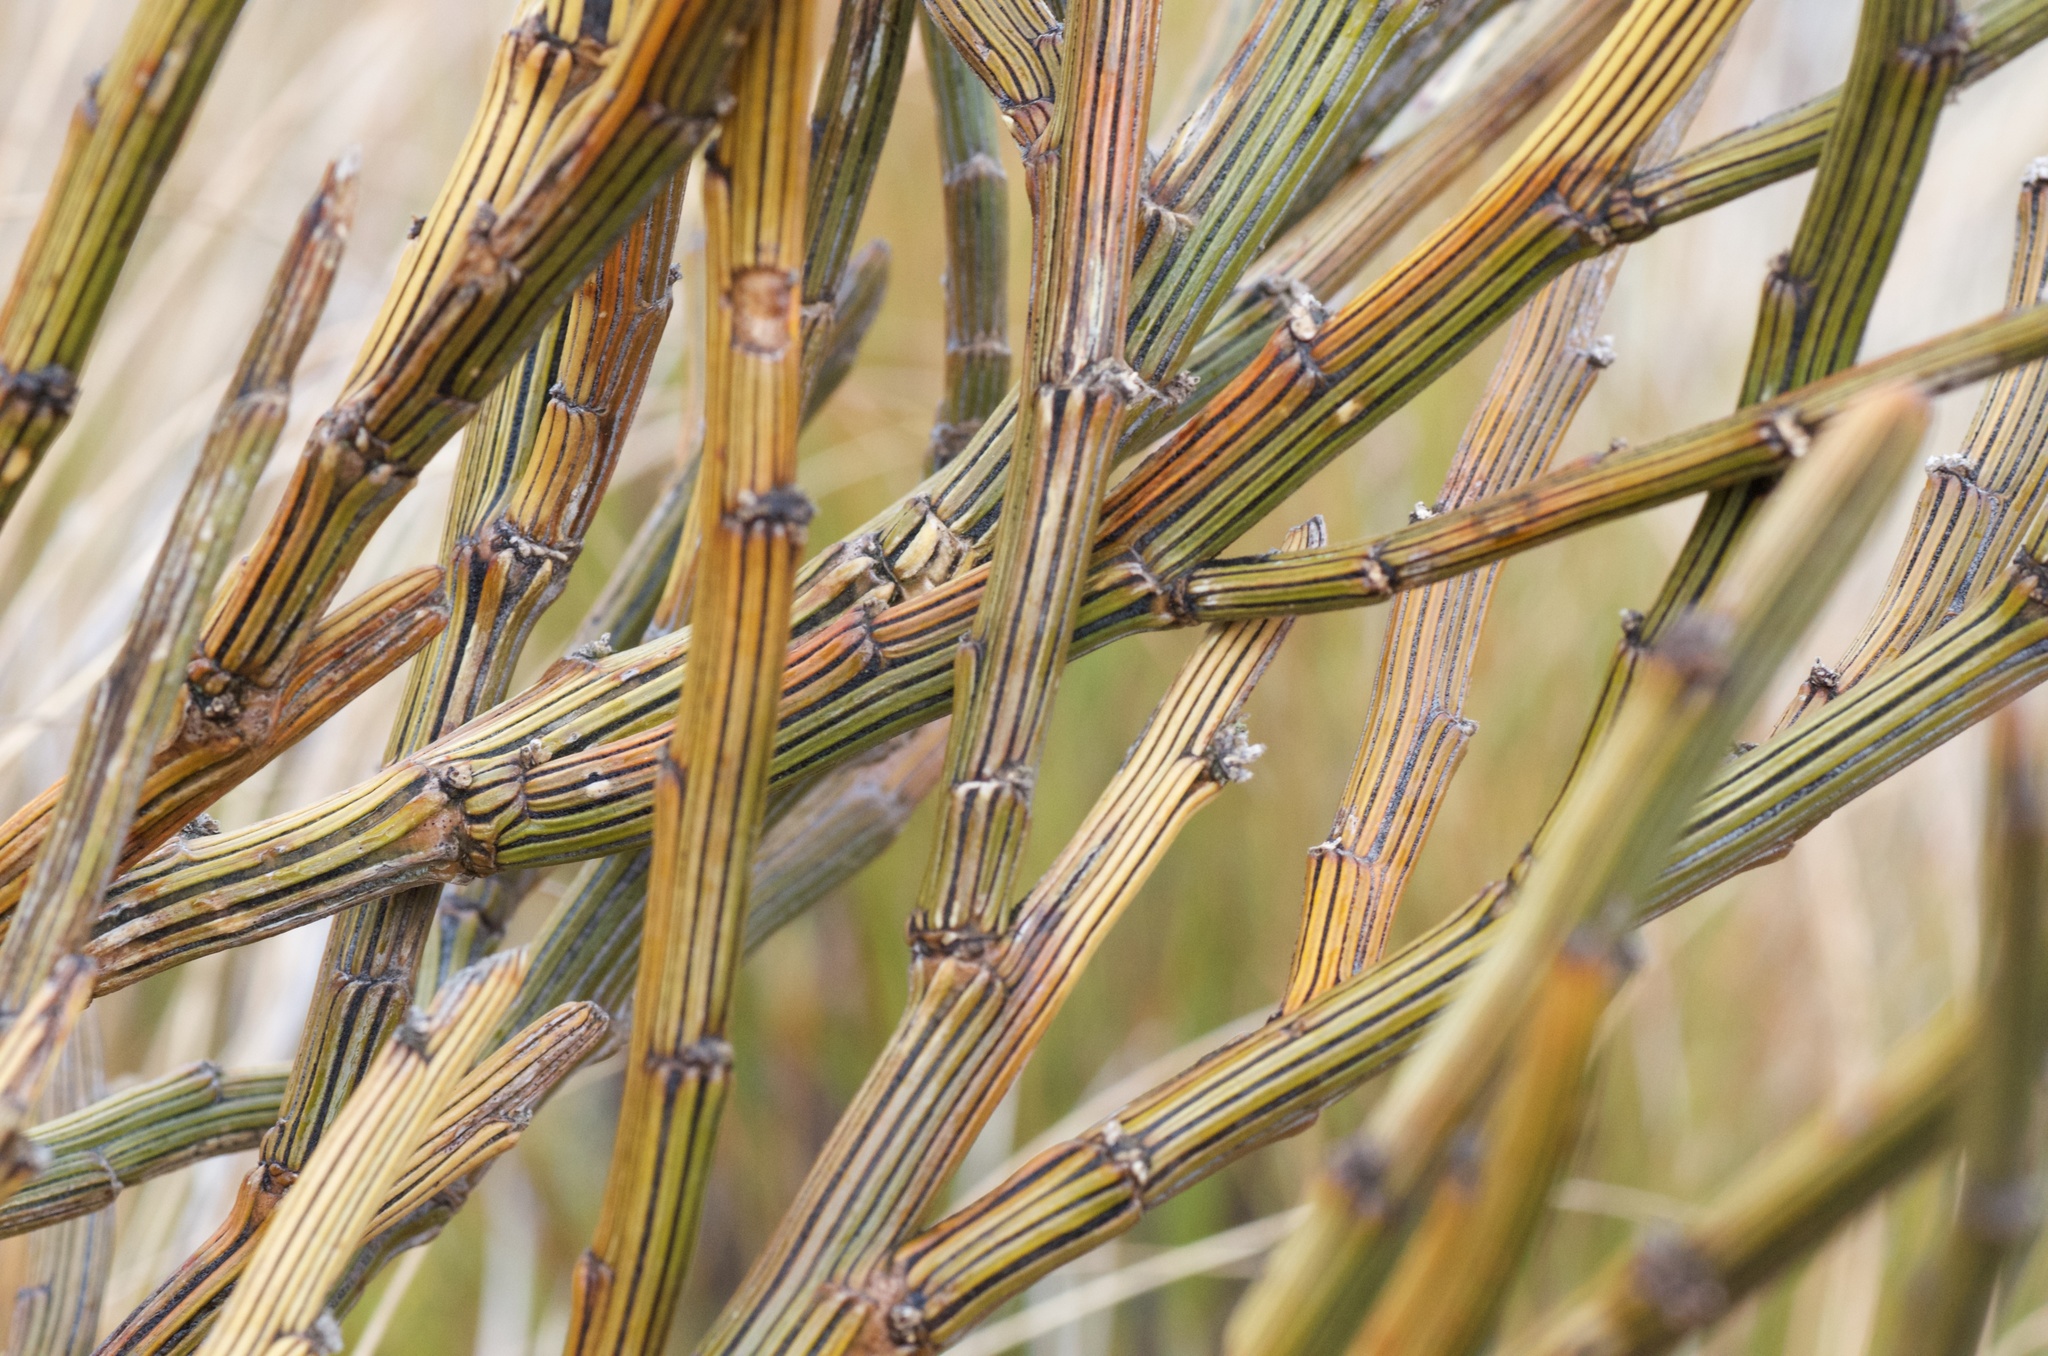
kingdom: Plantae
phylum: Tracheophyta
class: Magnoliopsida
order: Fabales
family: Fabaceae
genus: Carmichaelia
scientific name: Carmichaelia crassicaulis
